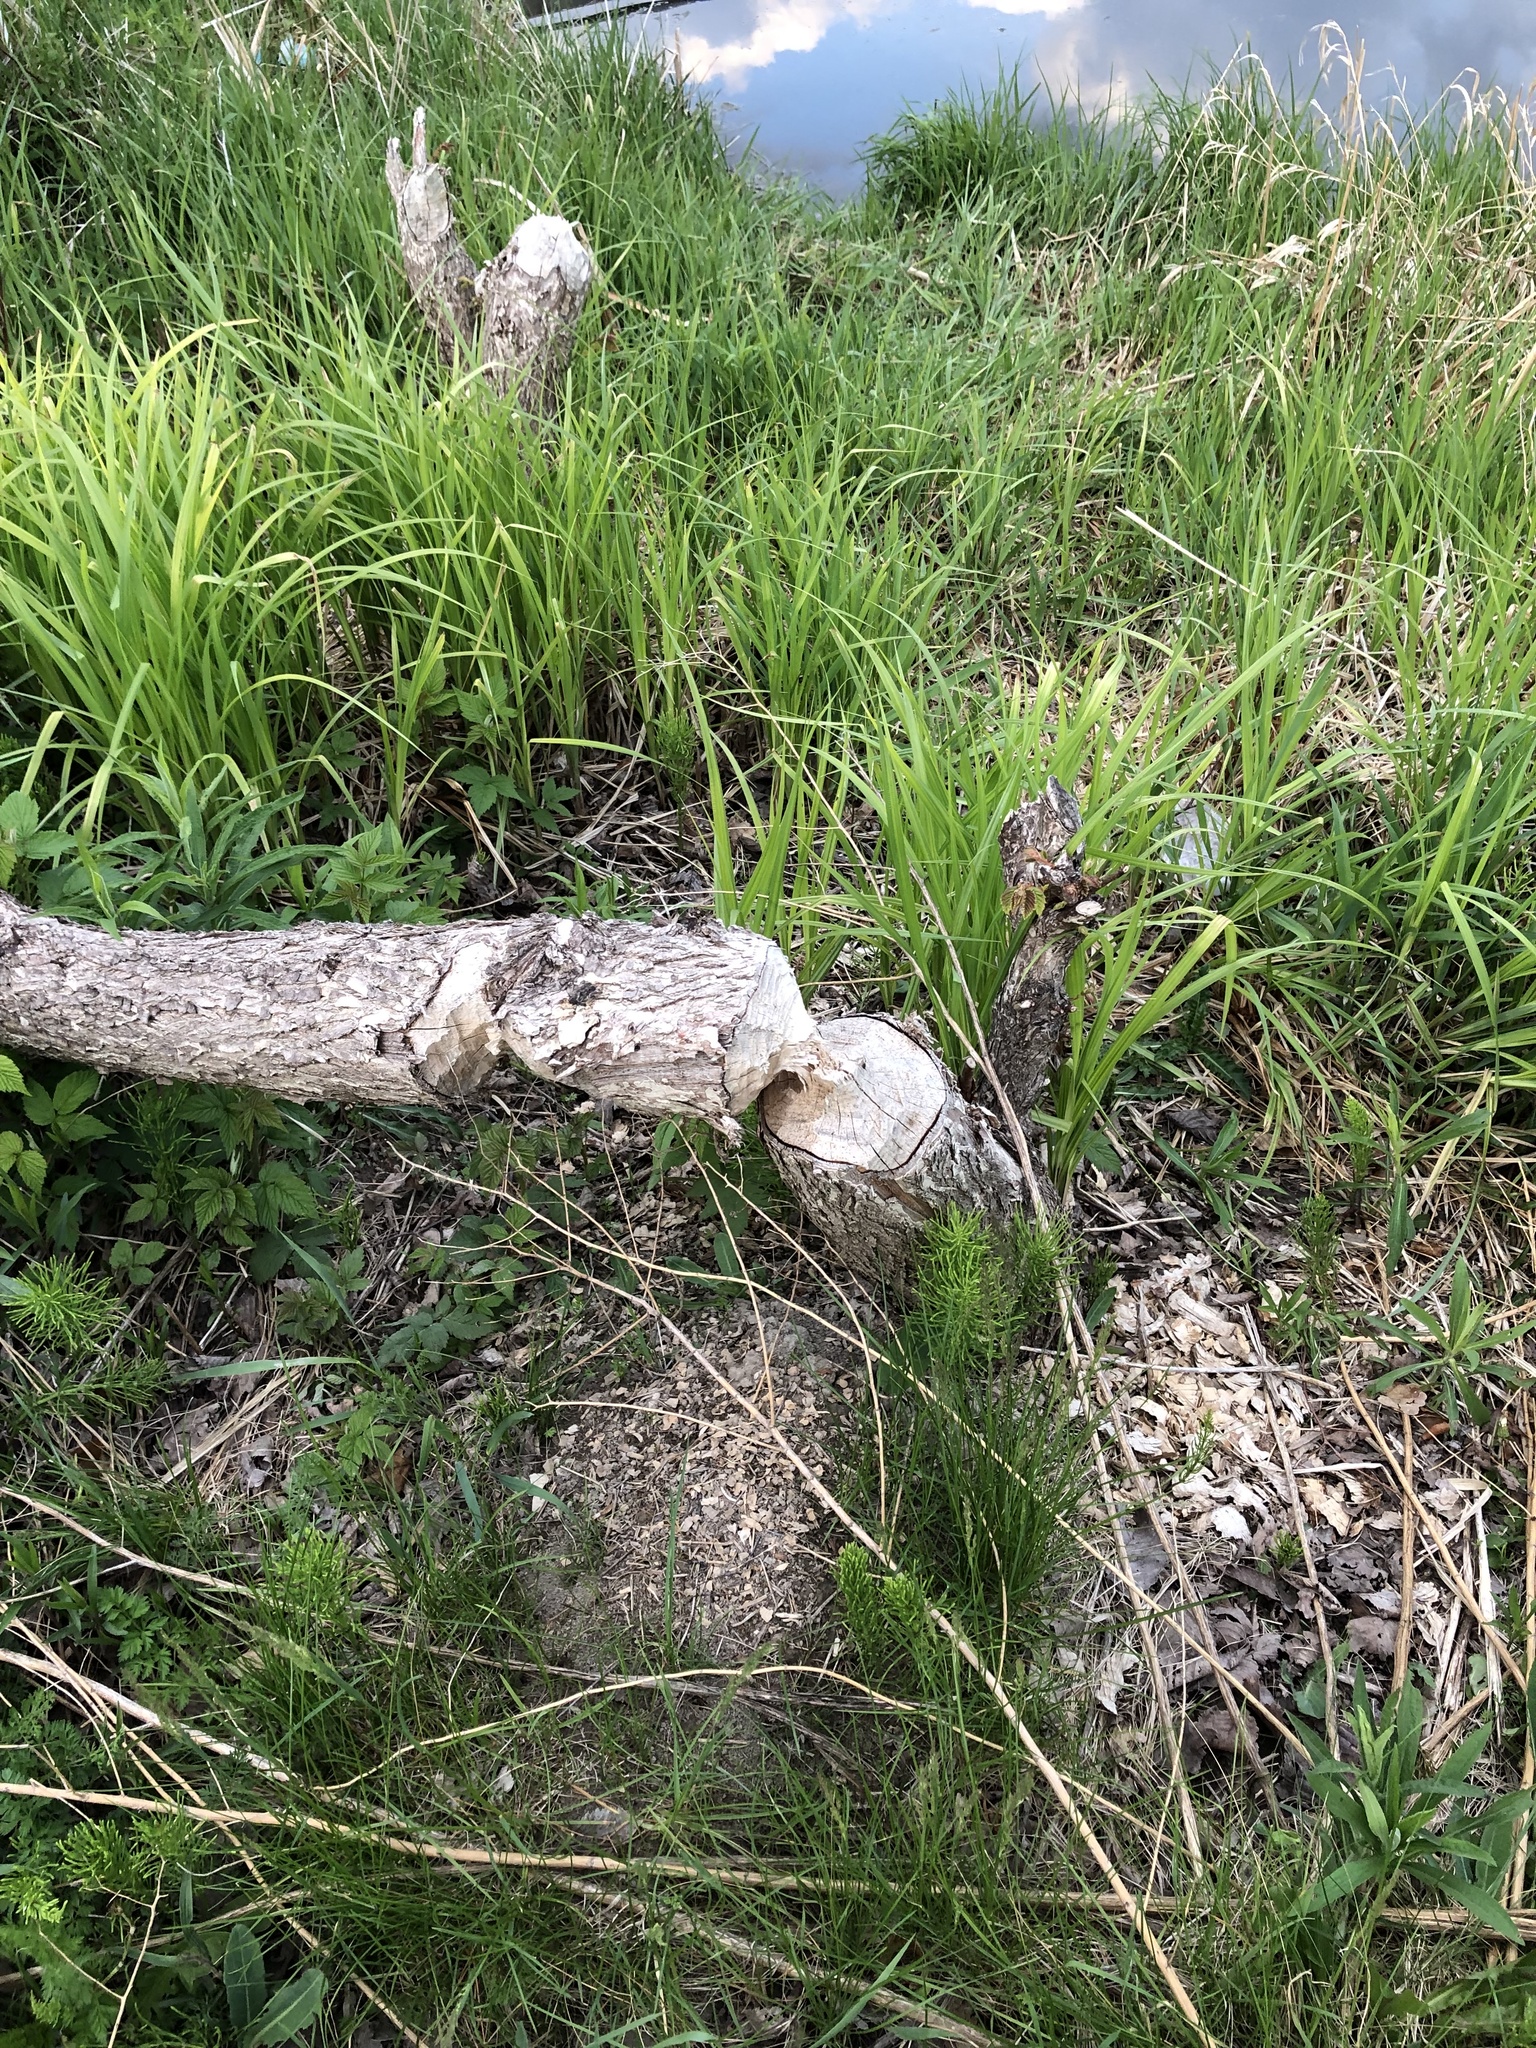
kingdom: Animalia
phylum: Chordata
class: Mammalia
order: Rodentia
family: Castoridae
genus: Castor
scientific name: Castor canadensis
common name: American beaver
